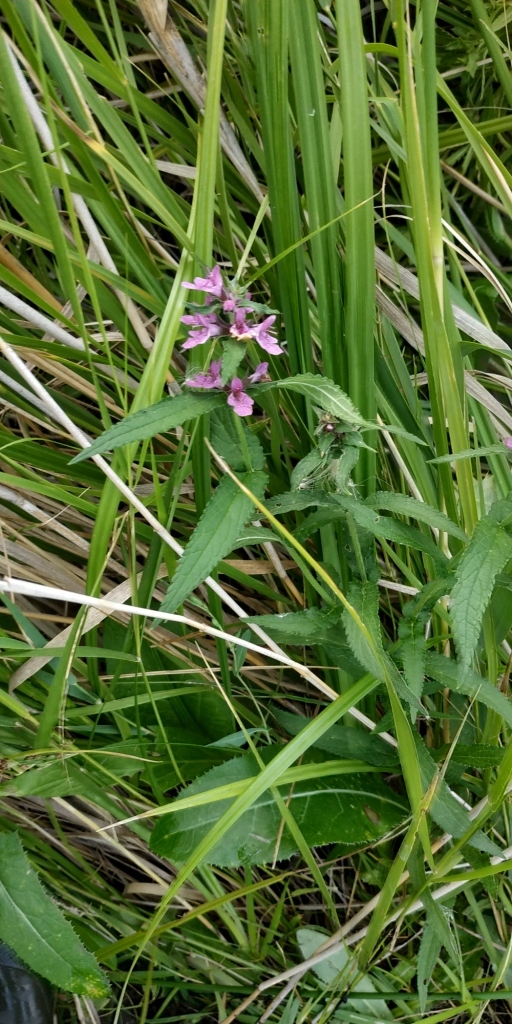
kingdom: Plantae
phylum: Tracheophyta
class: Magnoliopsida
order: Lamiales
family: Lamiaceae
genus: Stachys
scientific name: Stachys palustris
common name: Marsh woundwort
